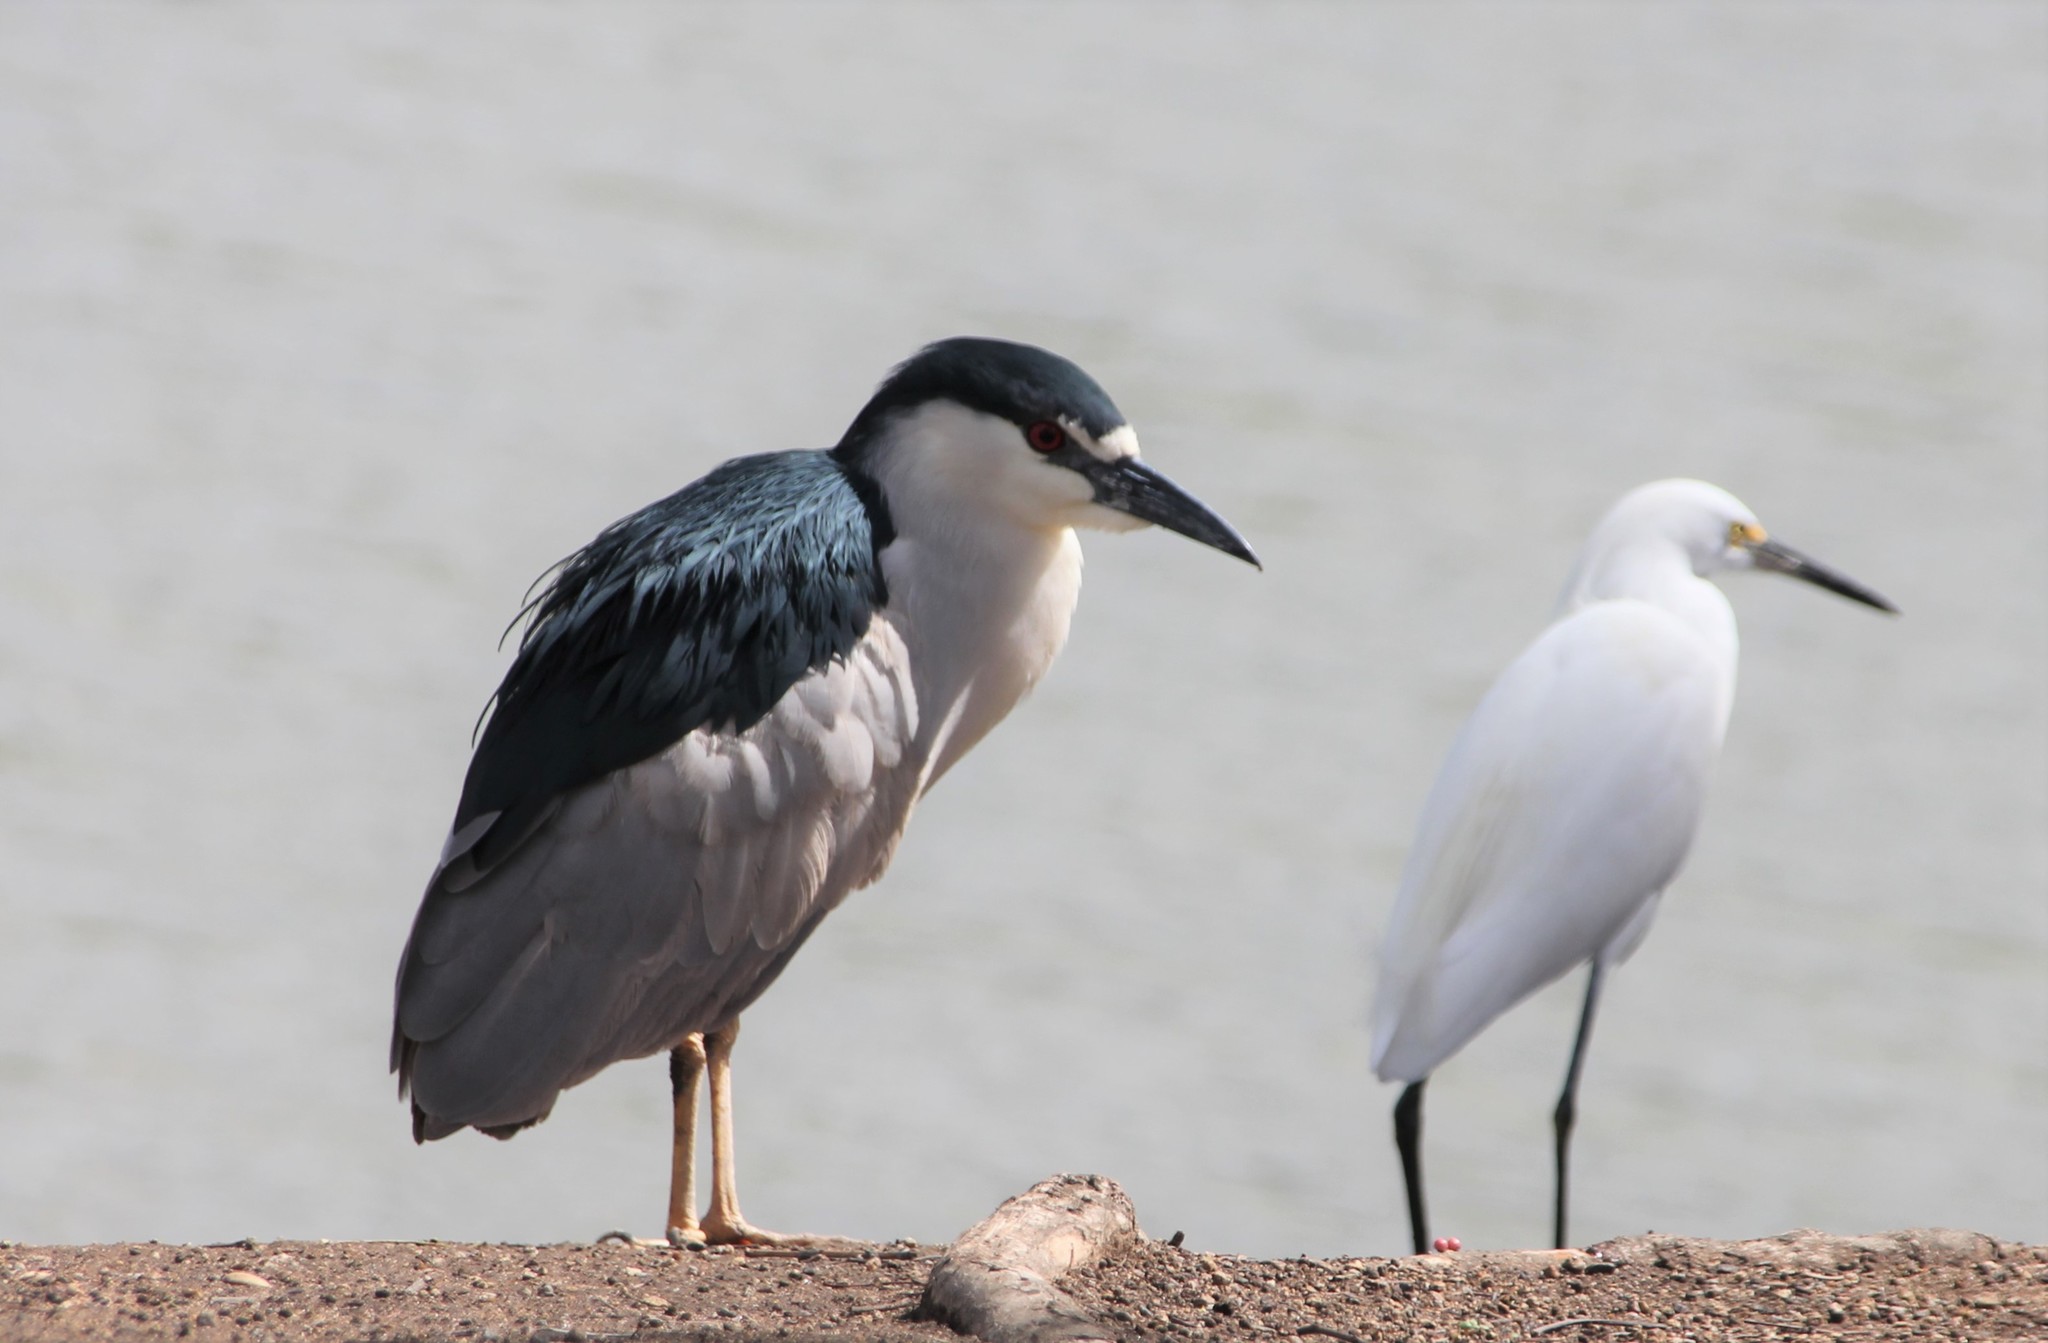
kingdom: Animalia
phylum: Chordata
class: Aves
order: Pelecaniformes
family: Ardeidae
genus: Nycticorax
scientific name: Nycticorax nycticorax
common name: Black-crowned night heron
